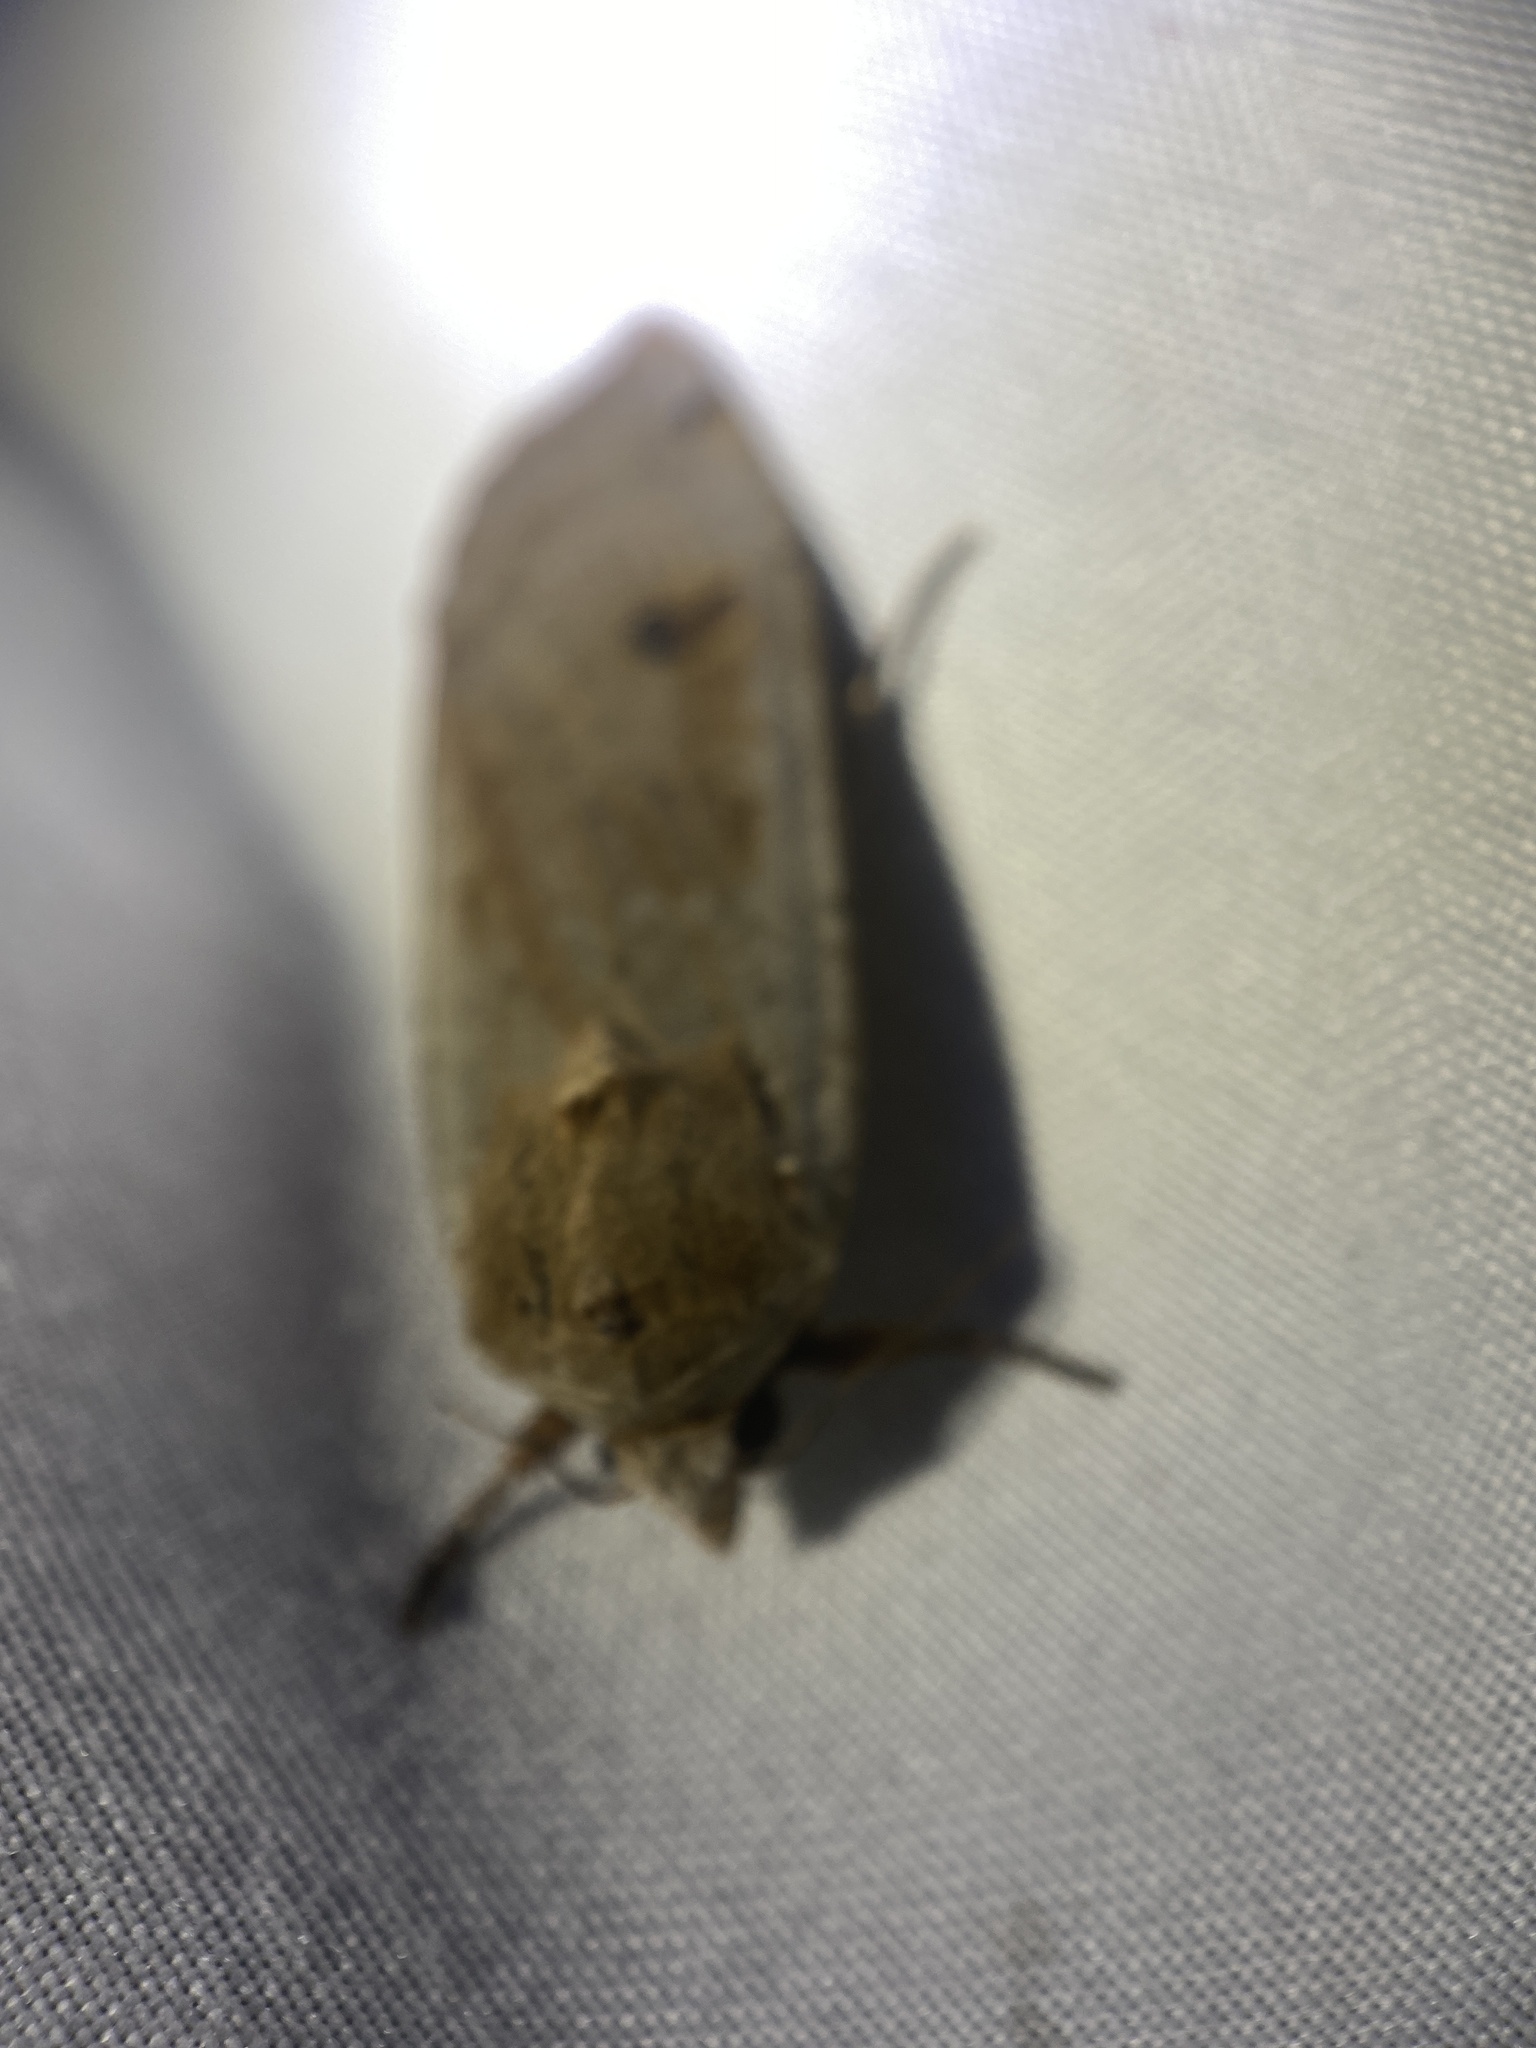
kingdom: Animalia
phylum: Arthropoda
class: Insecta
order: Lepidoptera
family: Noctuidae
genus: Noctua
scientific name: Noctua pronuba
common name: Large yellow underwing
